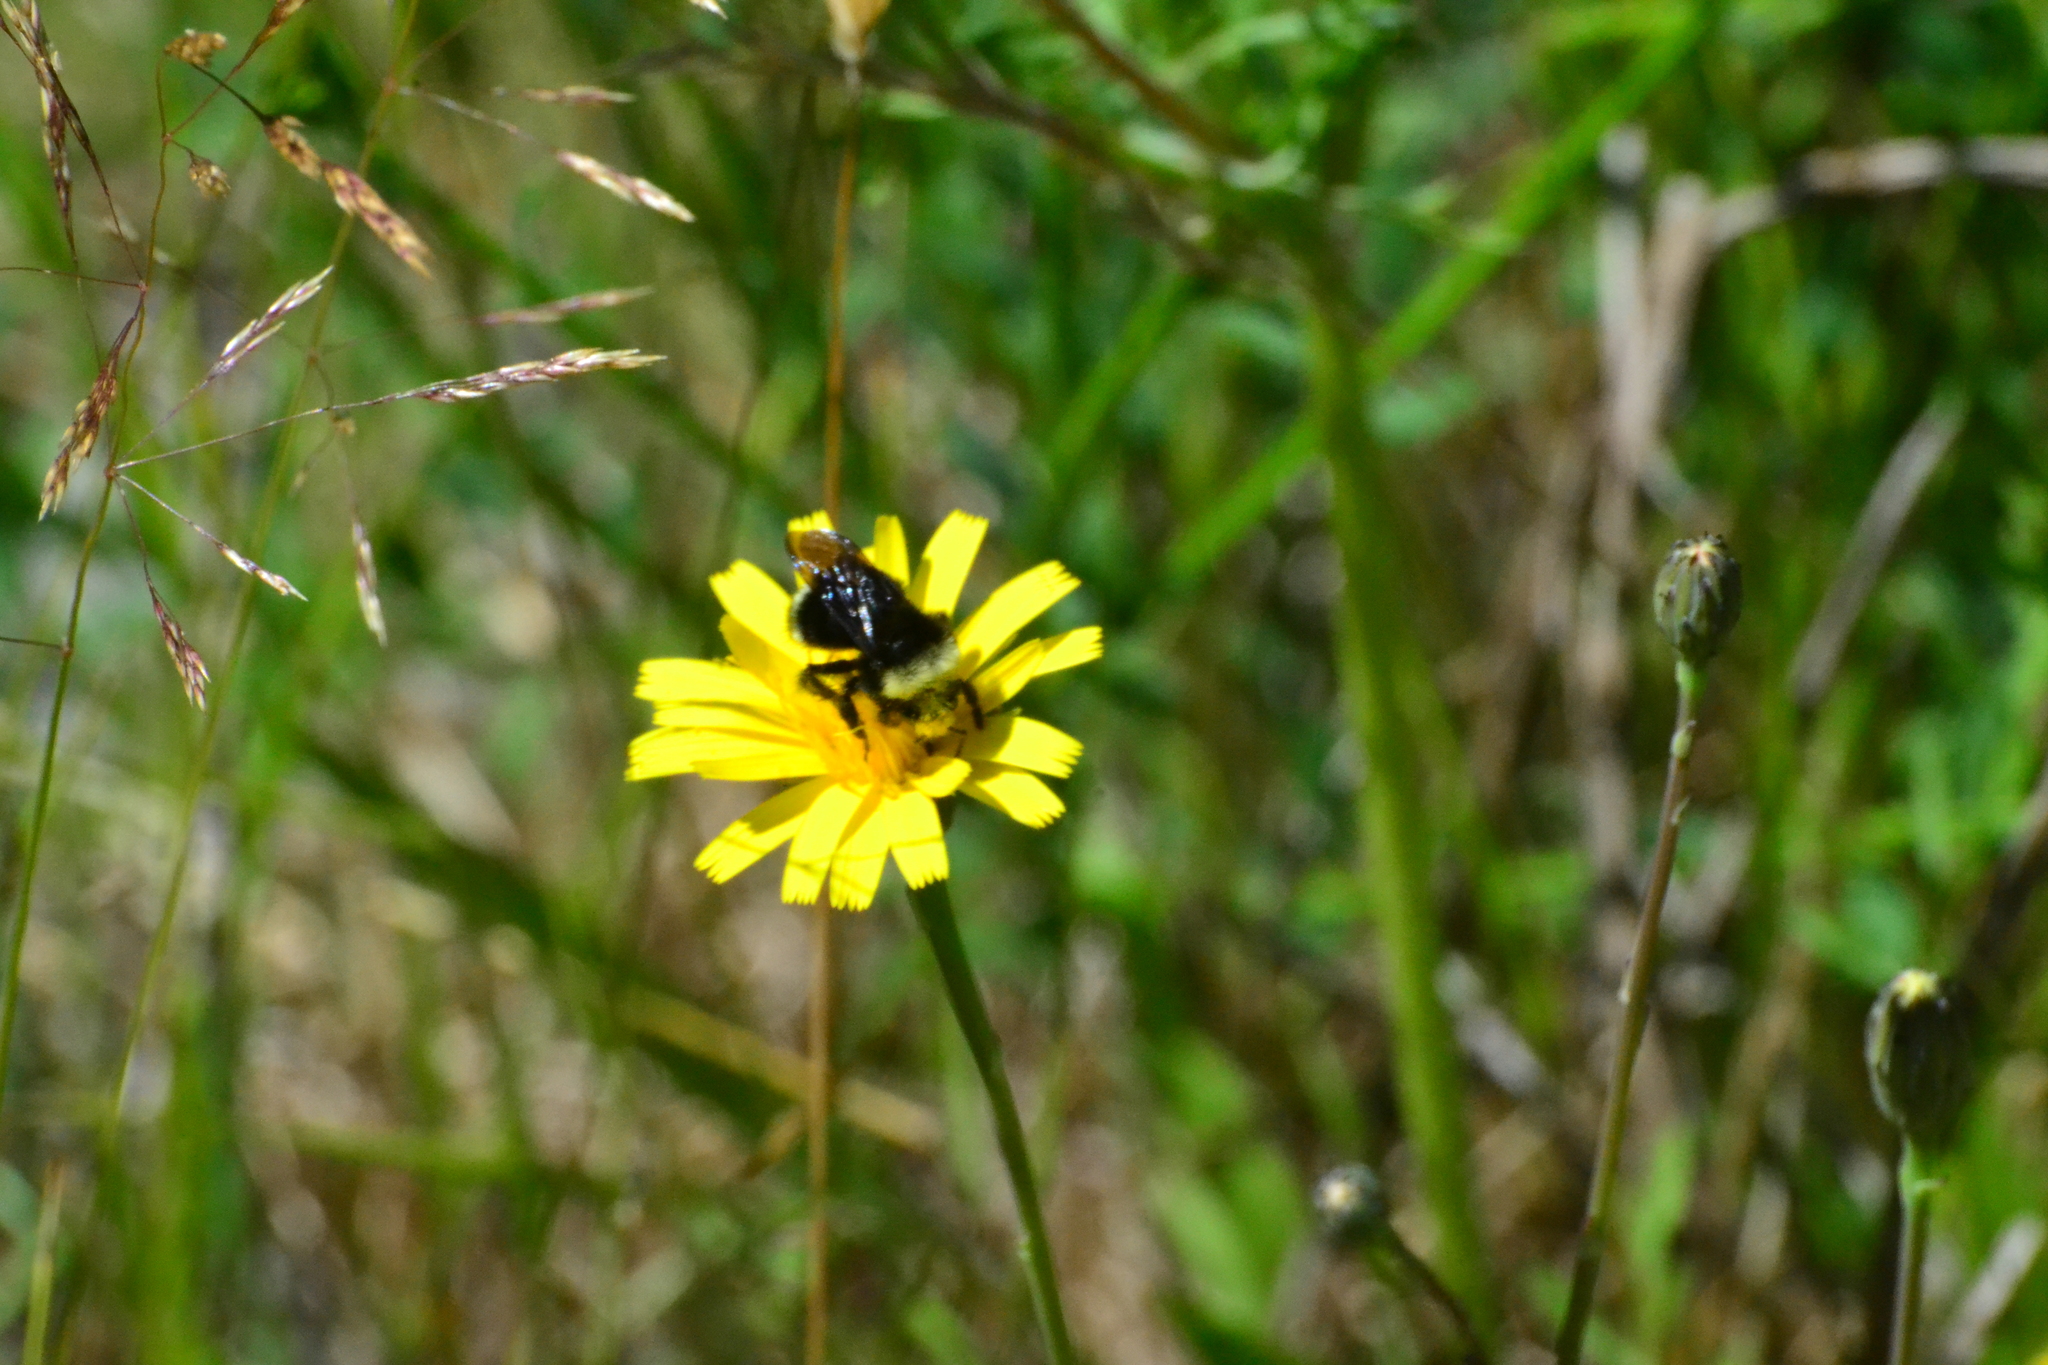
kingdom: Animalia
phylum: Arthropoda
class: Insecta
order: Hymenoptera
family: Apidae
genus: Bombus
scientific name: Bombus vosnesenskii
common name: Vosnesensky bumble bee
